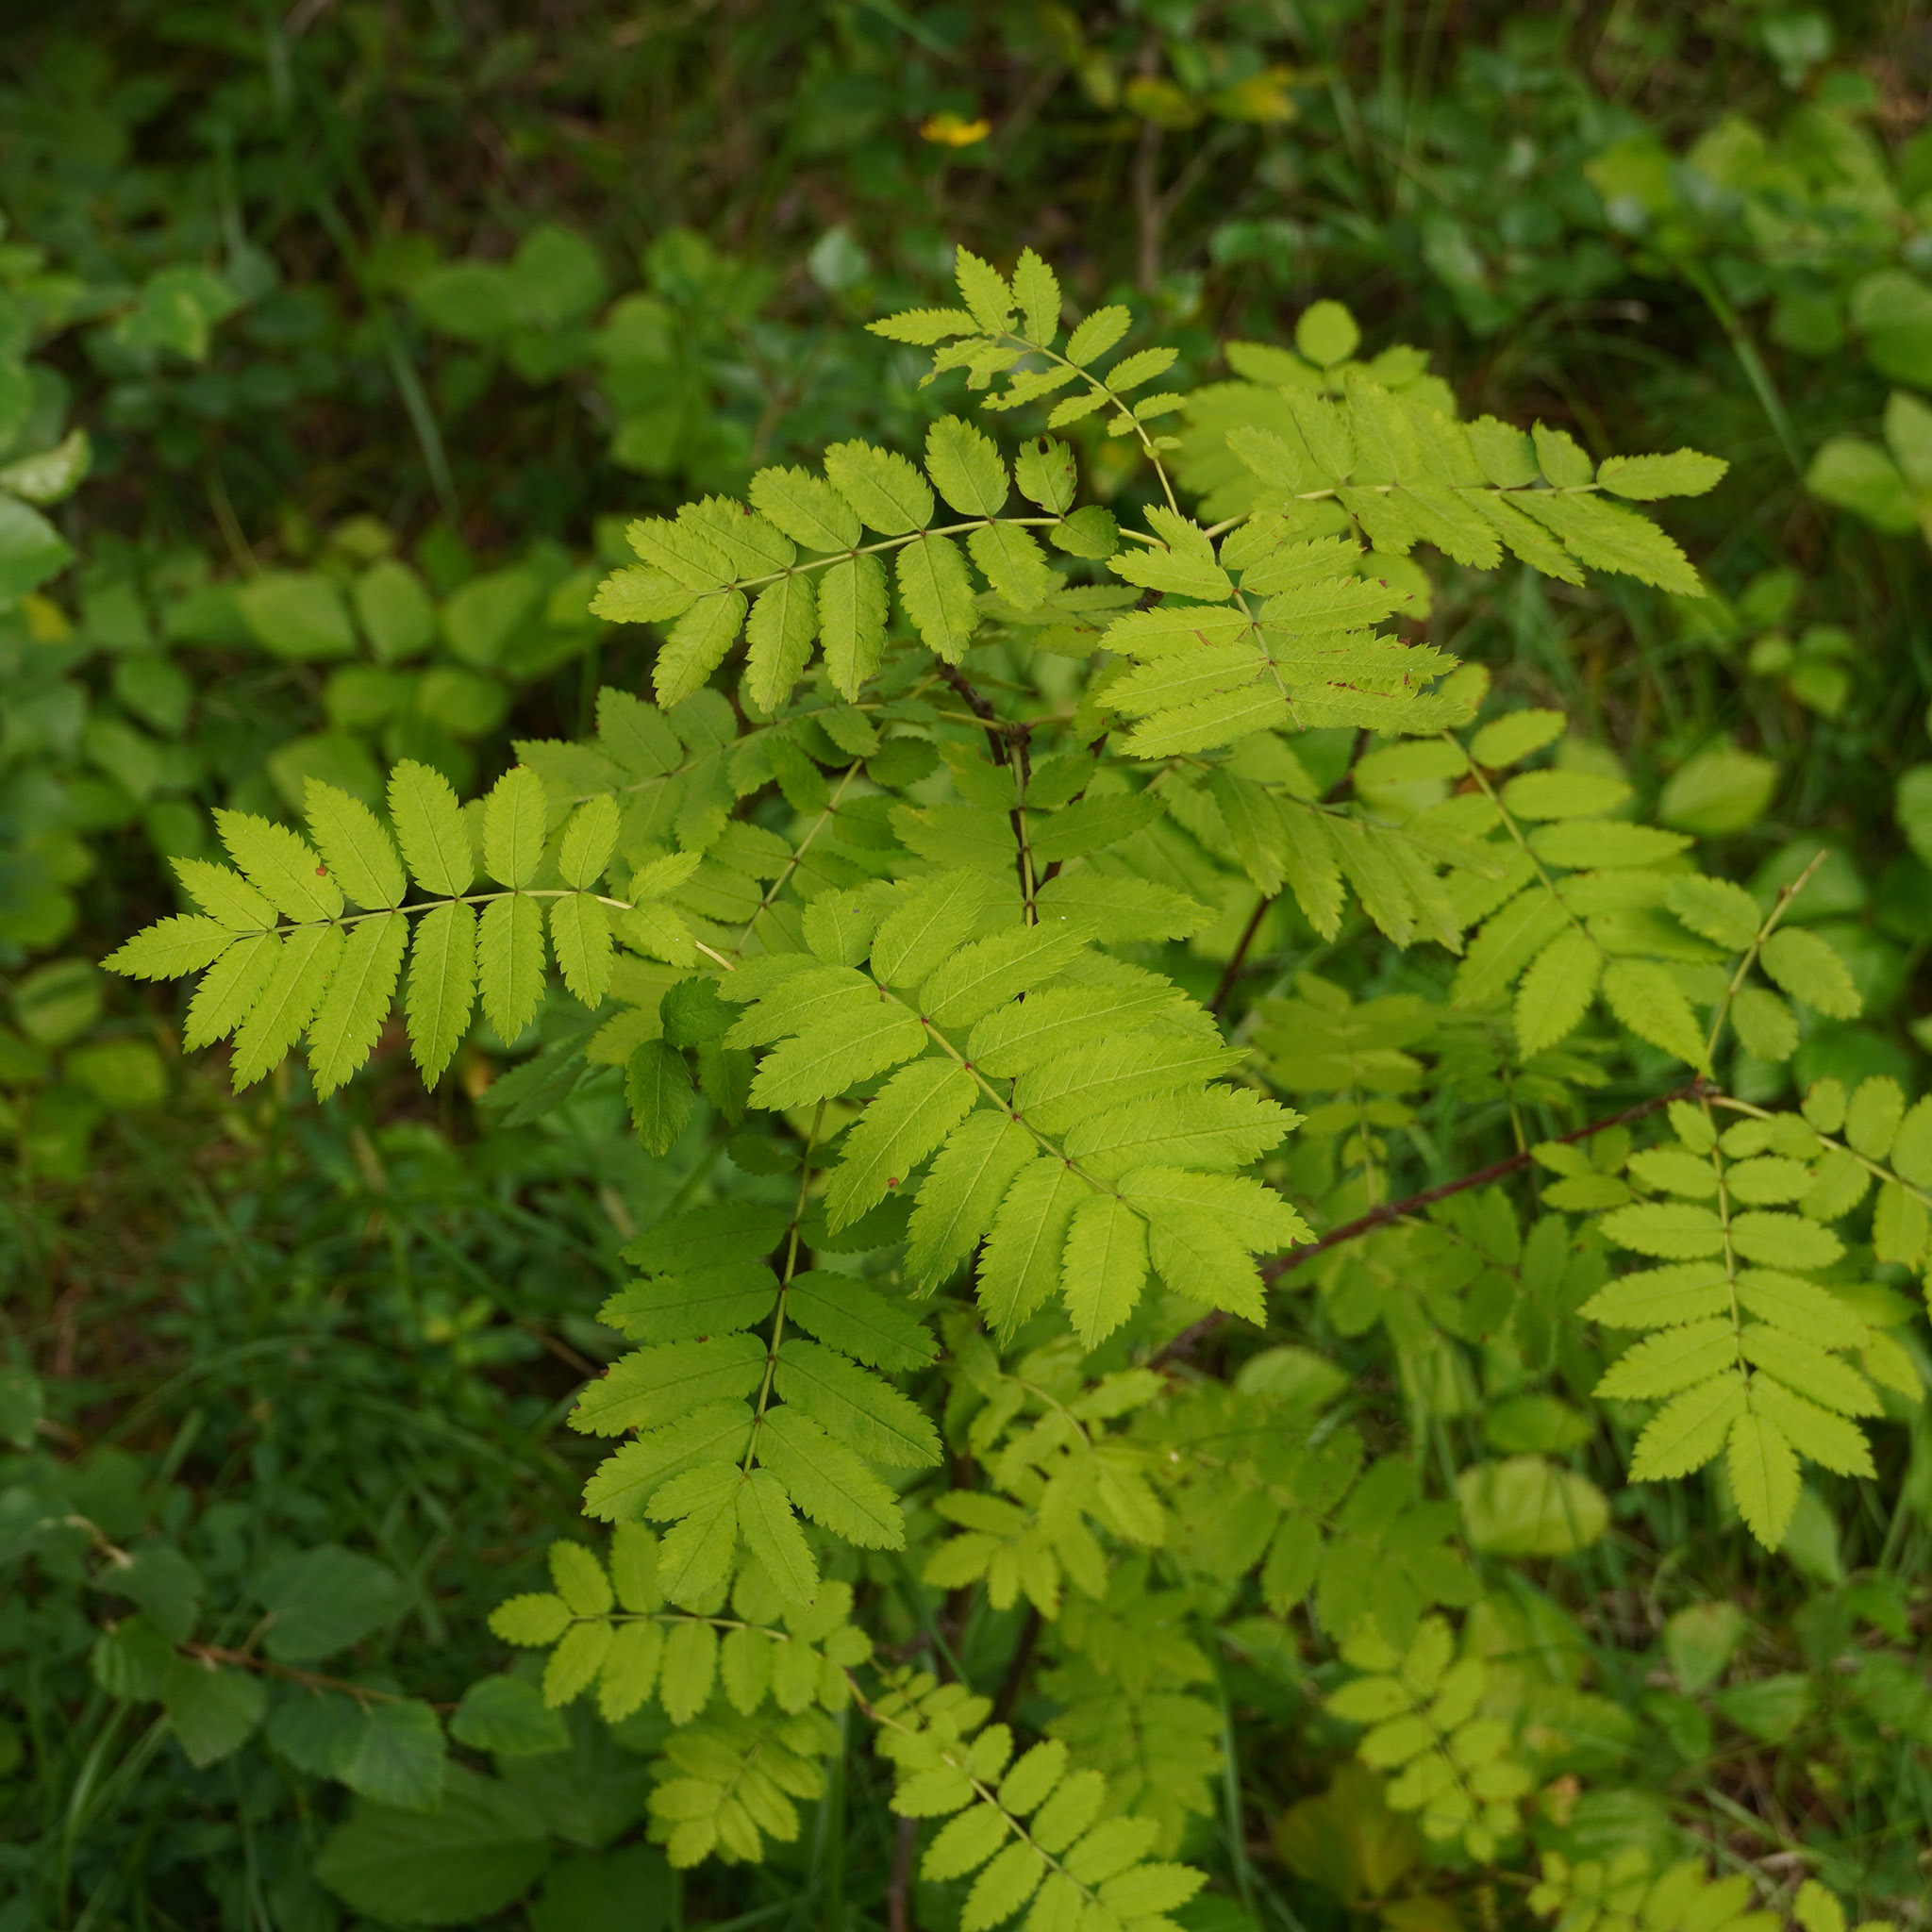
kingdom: Plantae
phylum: Tracheophyta
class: Magnoliopsida
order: Rosales
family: Rosaceae
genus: Sorbus
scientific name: Sorbus aucuparia
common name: Rowan
